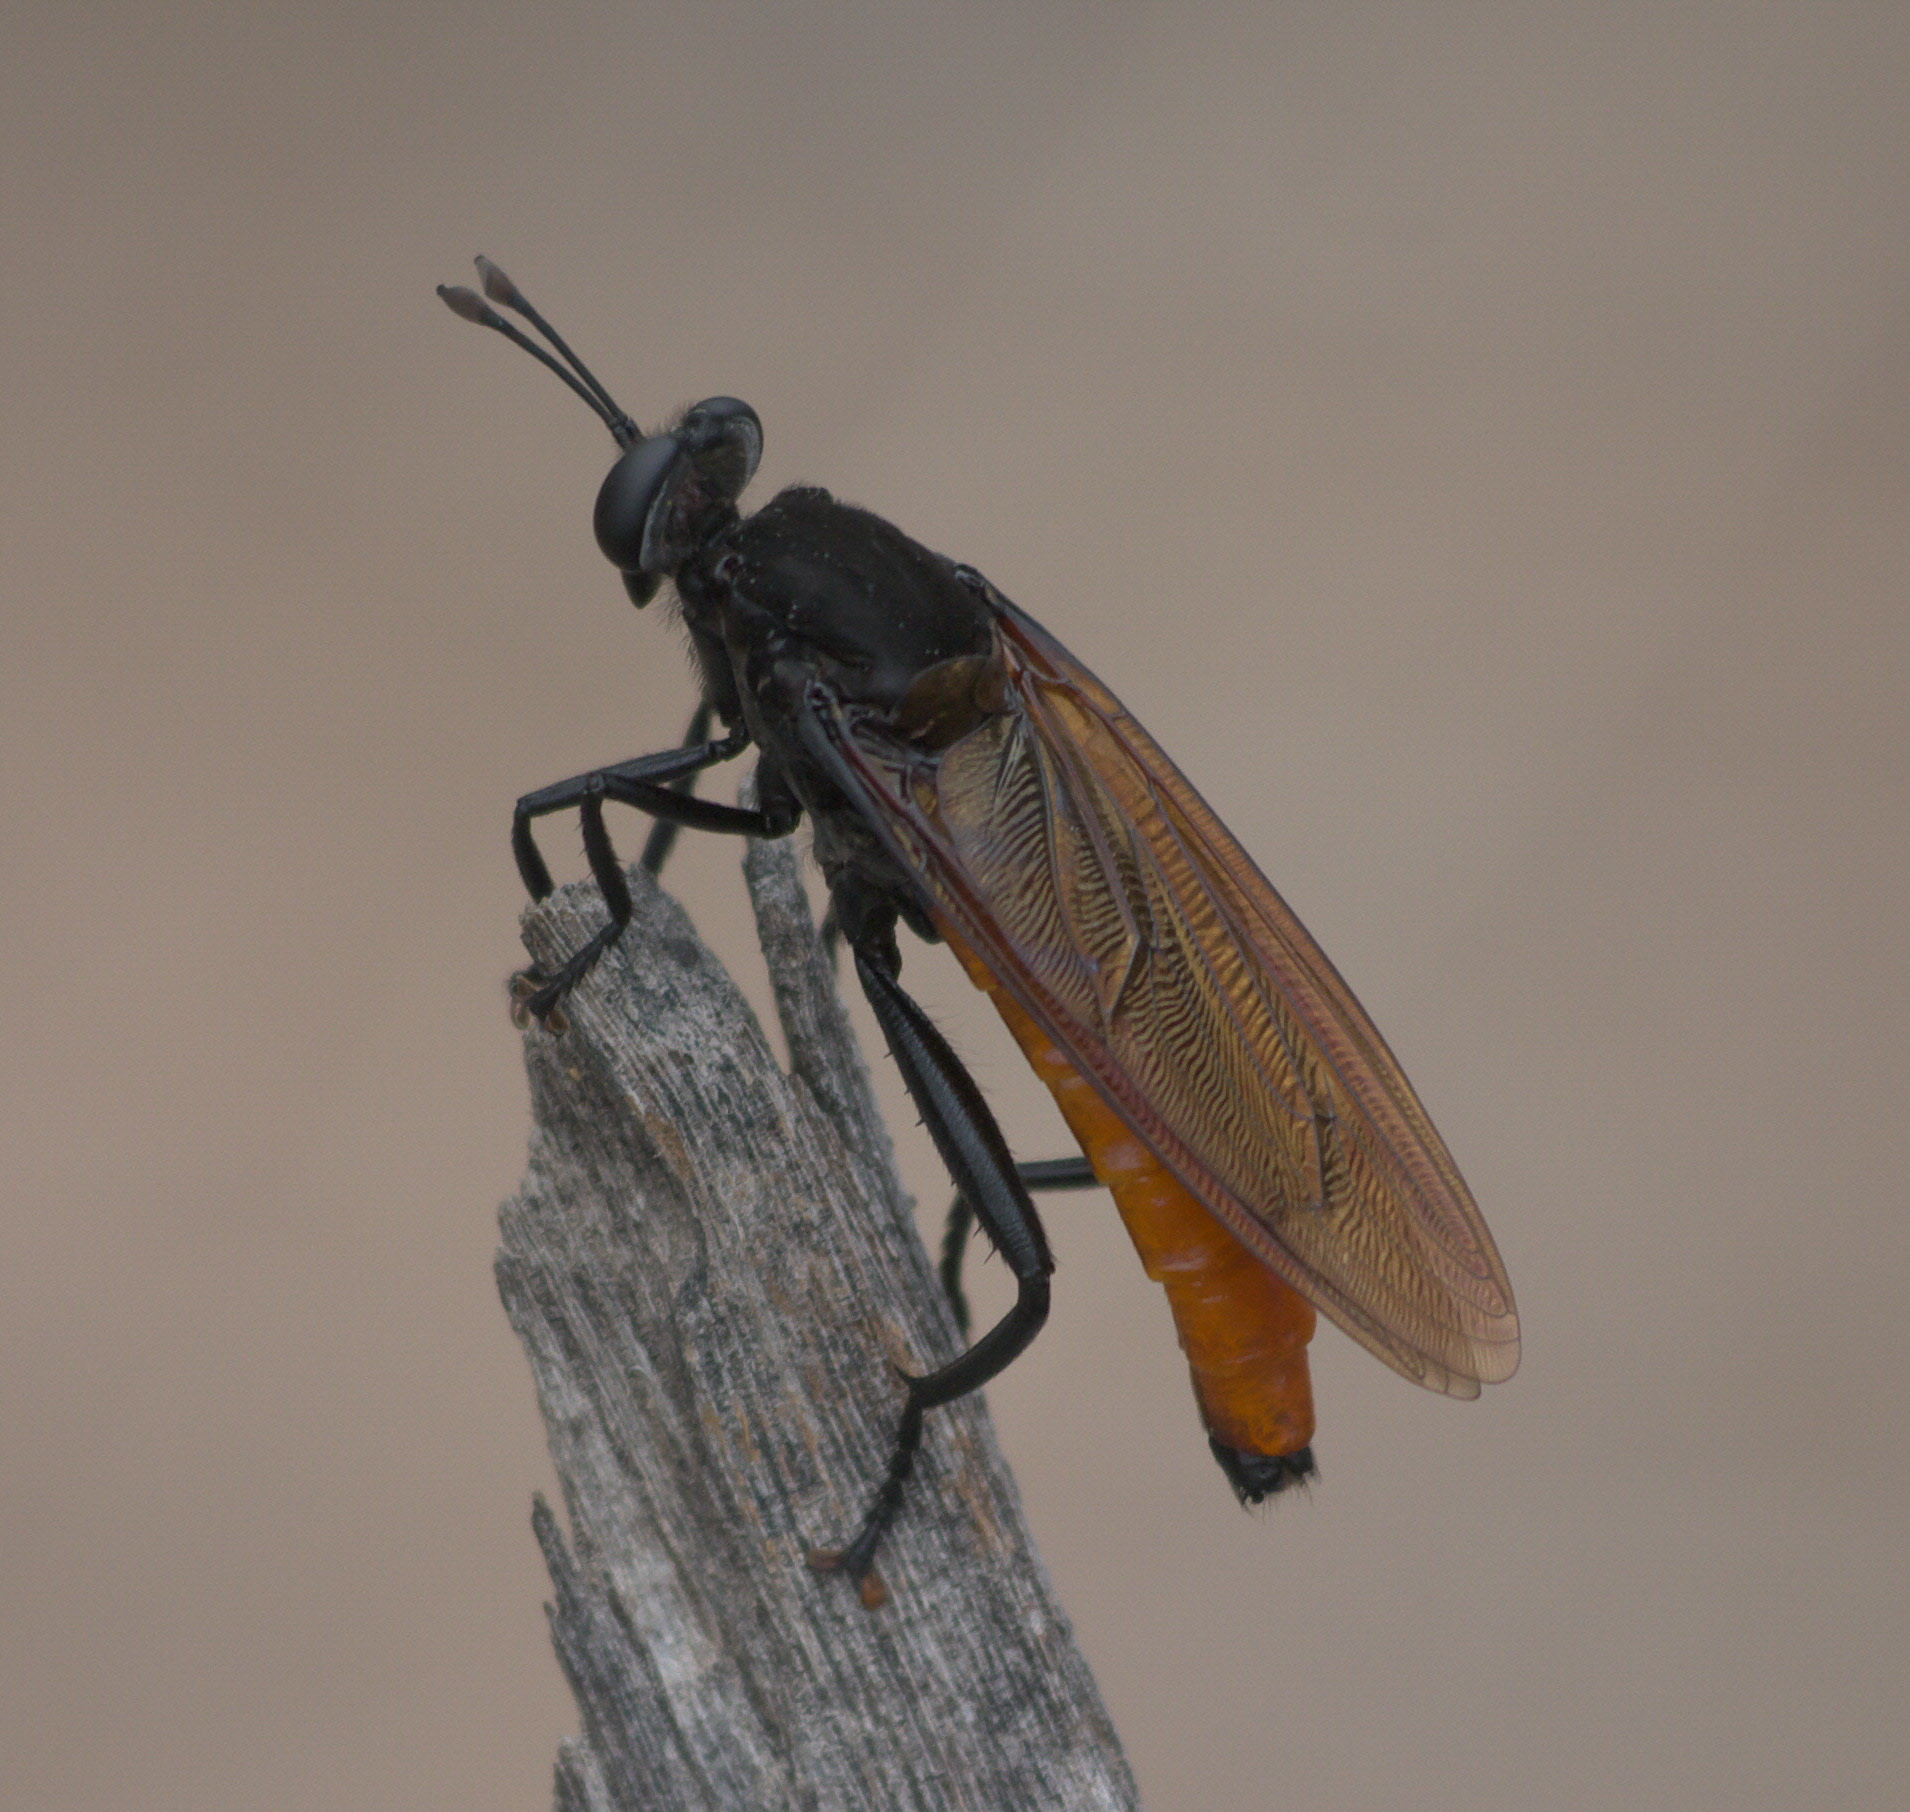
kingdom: Animalia
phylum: Arthropoda
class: Insecta
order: Diptera
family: Mydidae
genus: Mydas
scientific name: Mydas ventralis
